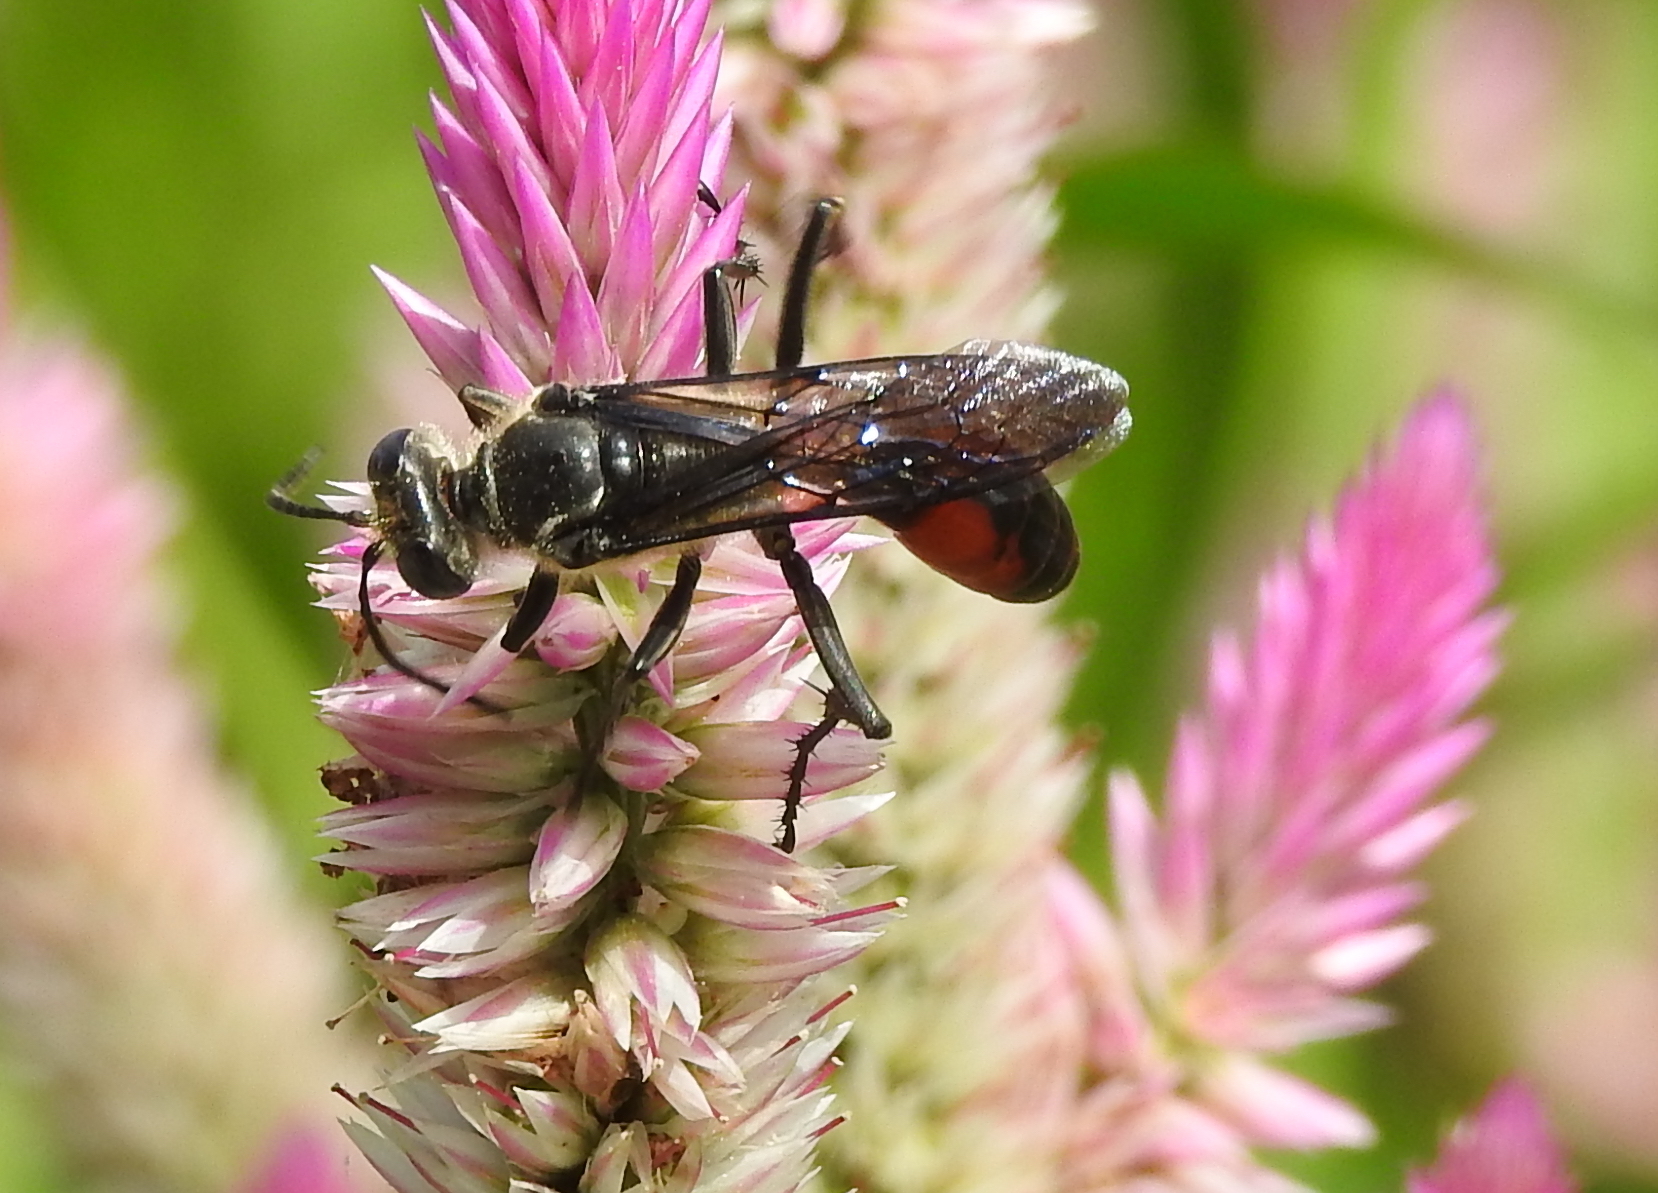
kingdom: Animalia
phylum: Arthropoda
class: Insecta
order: Hymenoptera
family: Sphecidae
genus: Sphex
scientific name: Sphex sericeus
